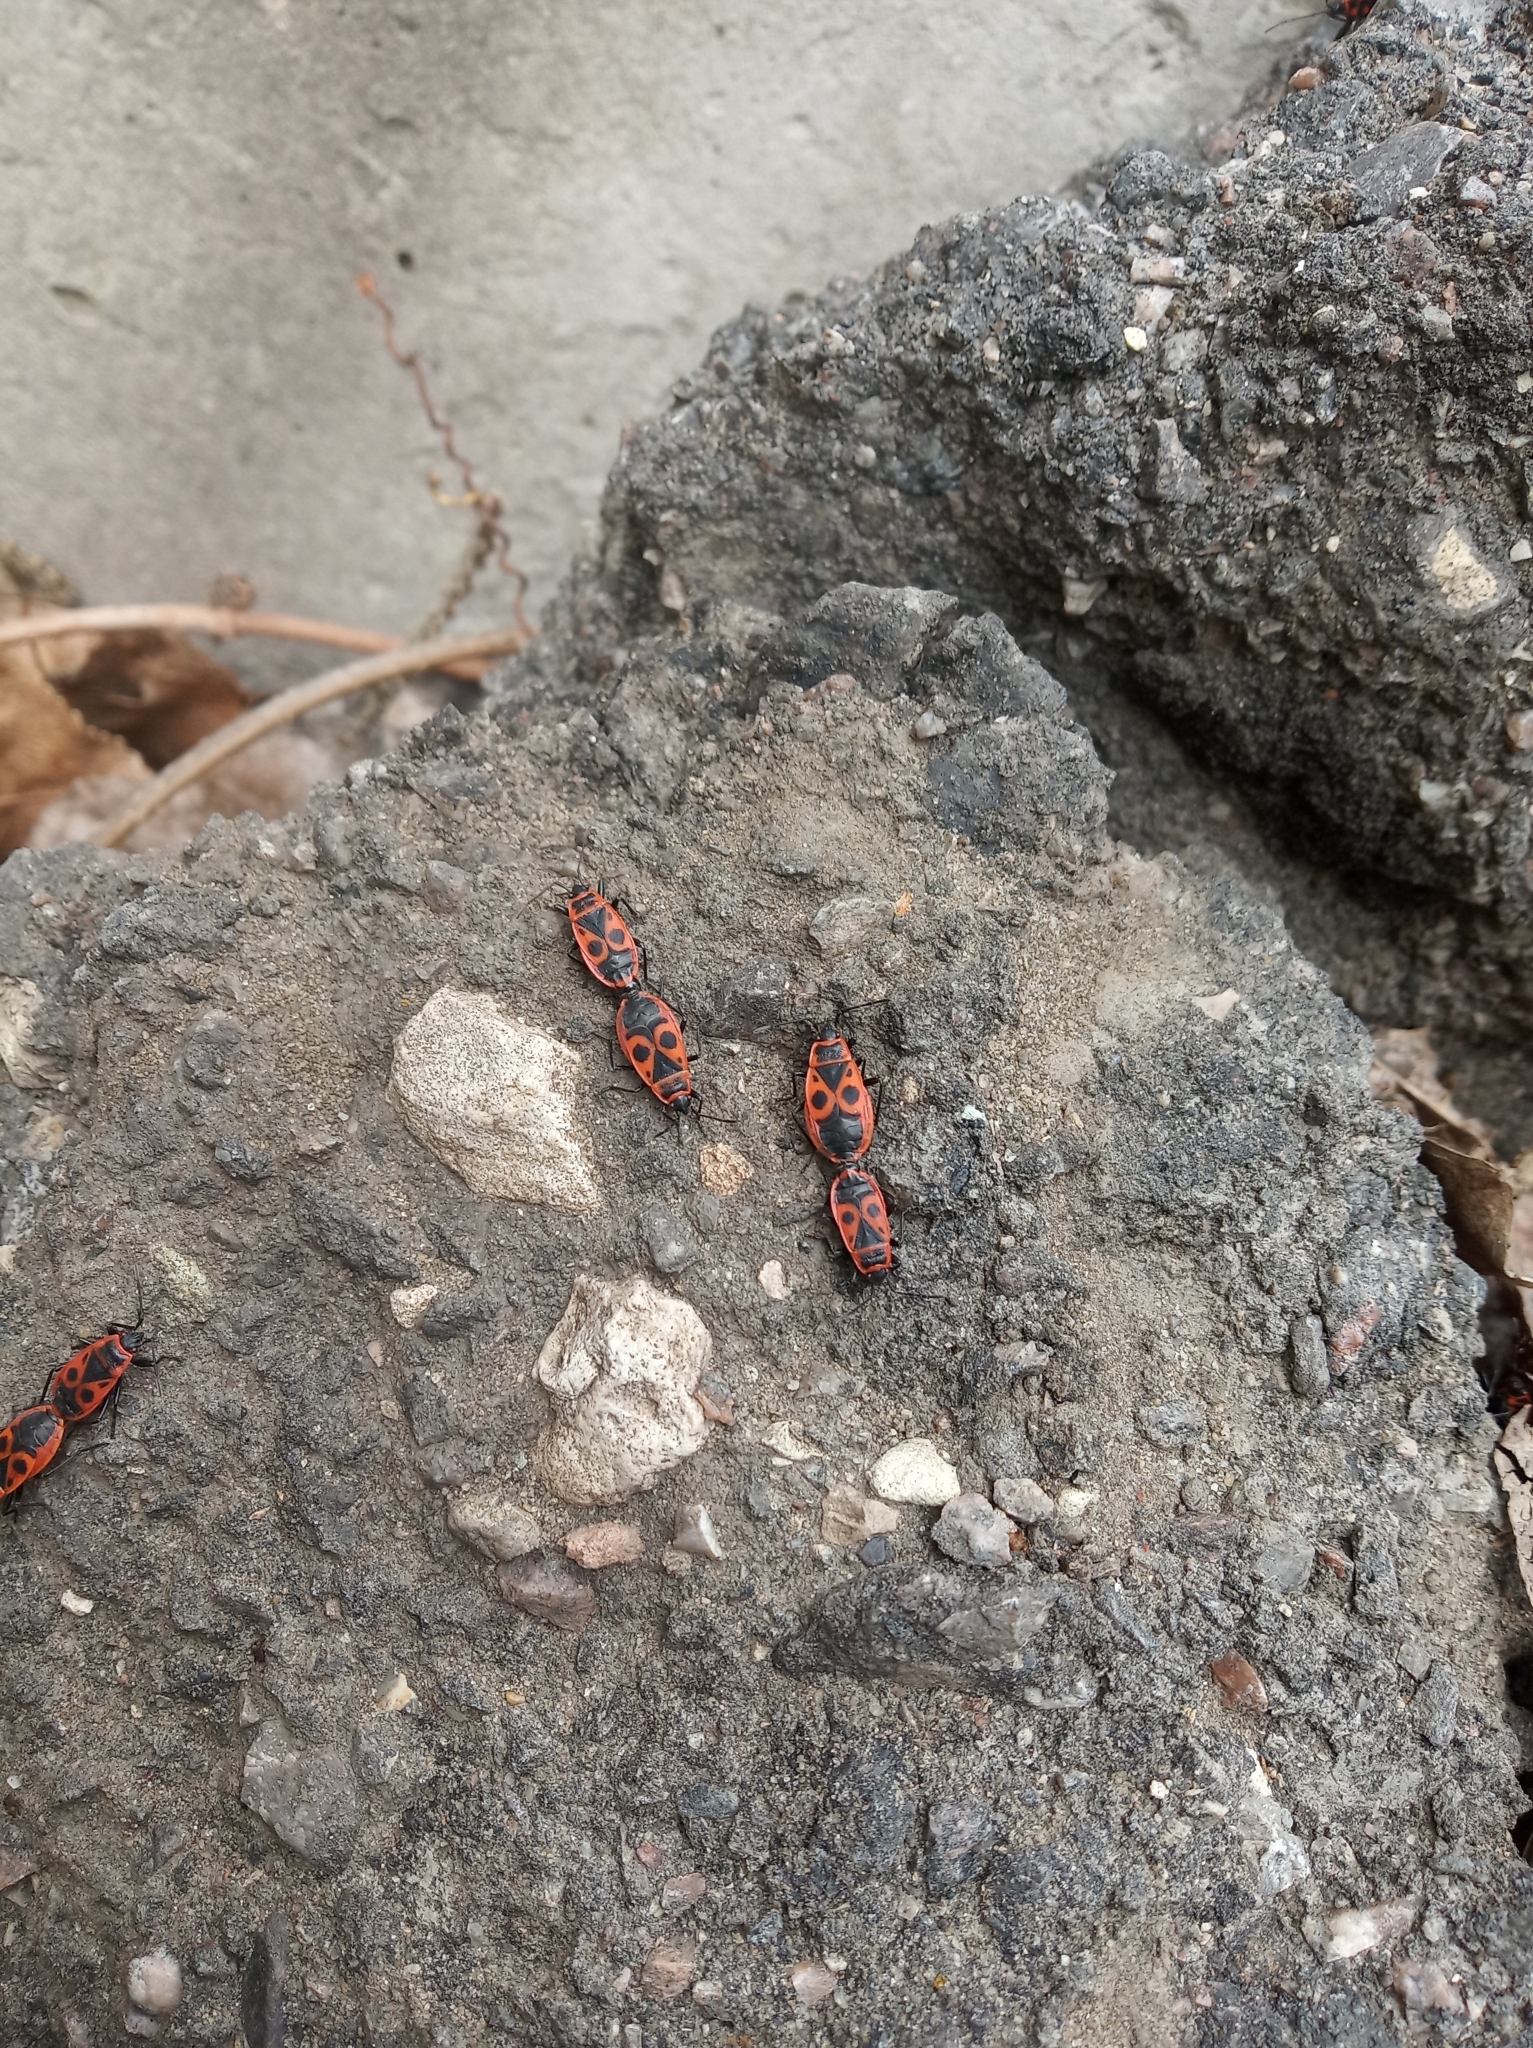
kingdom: Animalia
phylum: Arthropoda
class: Insecta
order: Hemiptera
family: Pyrrhocoridae
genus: Pyrrhocoris
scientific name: Pyrrhocoris apterus
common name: Firebug
